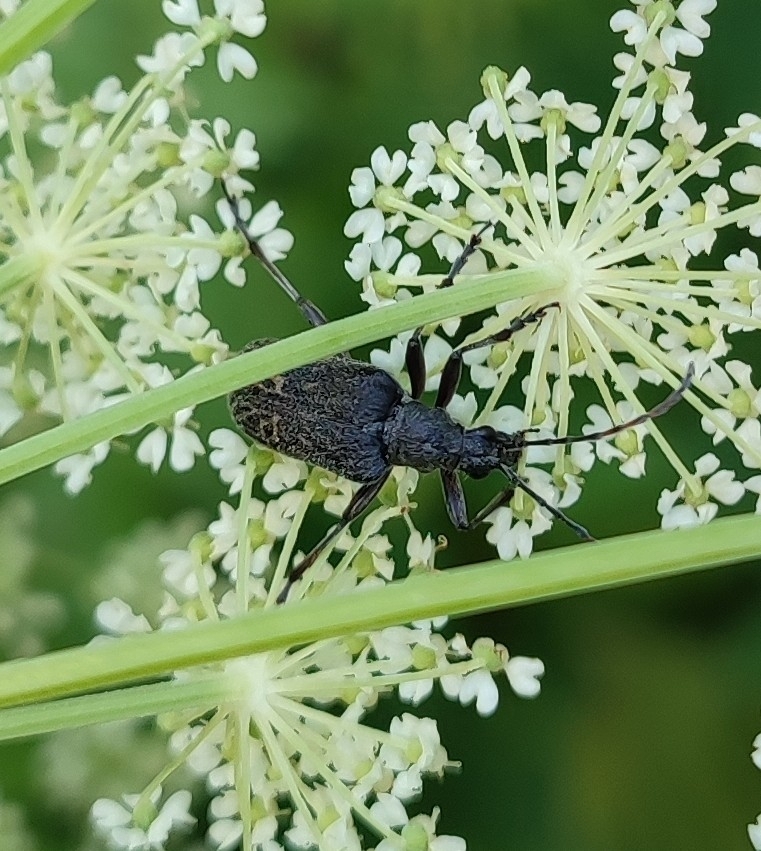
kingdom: Animalia
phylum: Arthropoda
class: Insecta
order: Coleoptera
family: Cerambycidae
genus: Evodinus
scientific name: Evodinus clathratus
